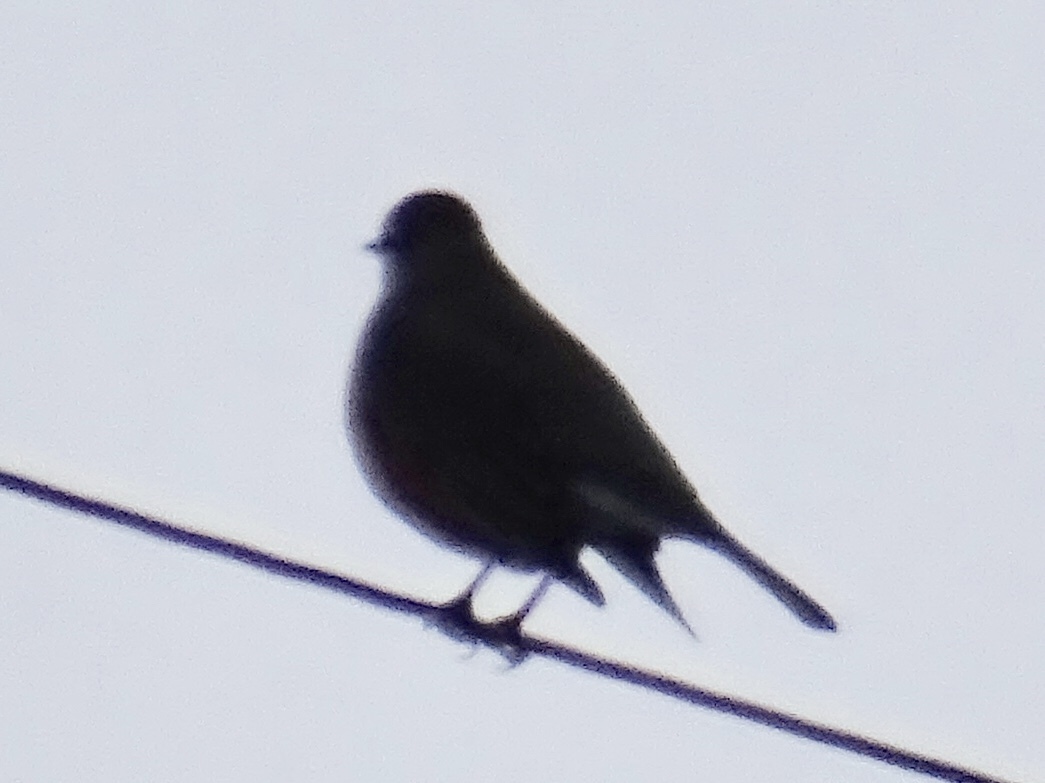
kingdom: Animalia
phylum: Chordata
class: Aves
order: Passeriformes
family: Turdidae
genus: Turdus
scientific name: Turdus migratorius
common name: American robin
